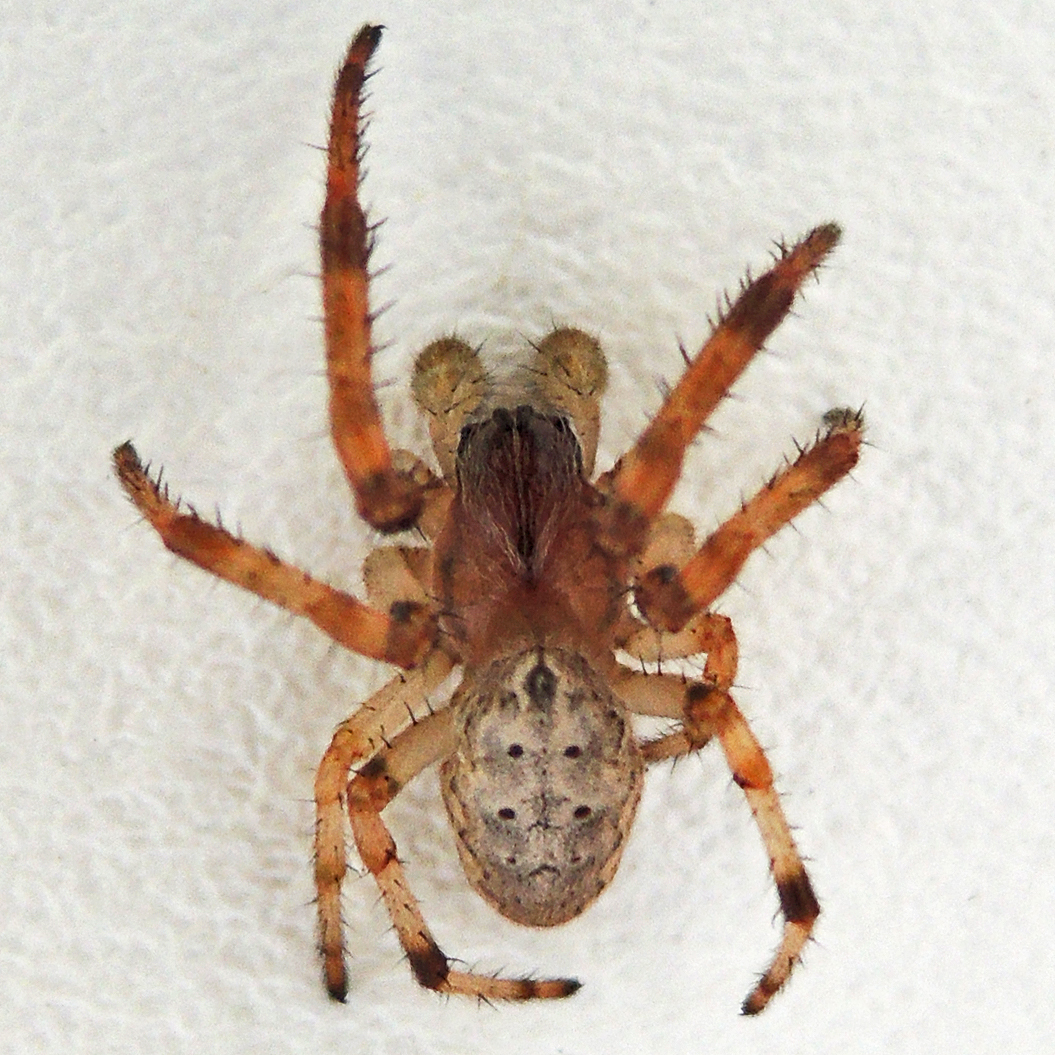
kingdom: Animalia
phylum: Arthropoda
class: Arachnida
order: Araneae
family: Araneidae
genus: Larinioides
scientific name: Larinioides cornutus
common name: Furrow orbweaver
